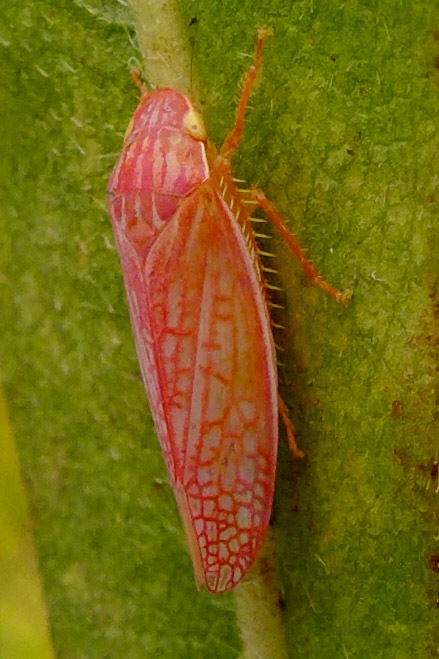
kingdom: Animalia
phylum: Arthropoda
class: Insecta
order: Hemiptera
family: Cicadellidae
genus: Gyponana
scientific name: Gyponana gladia
